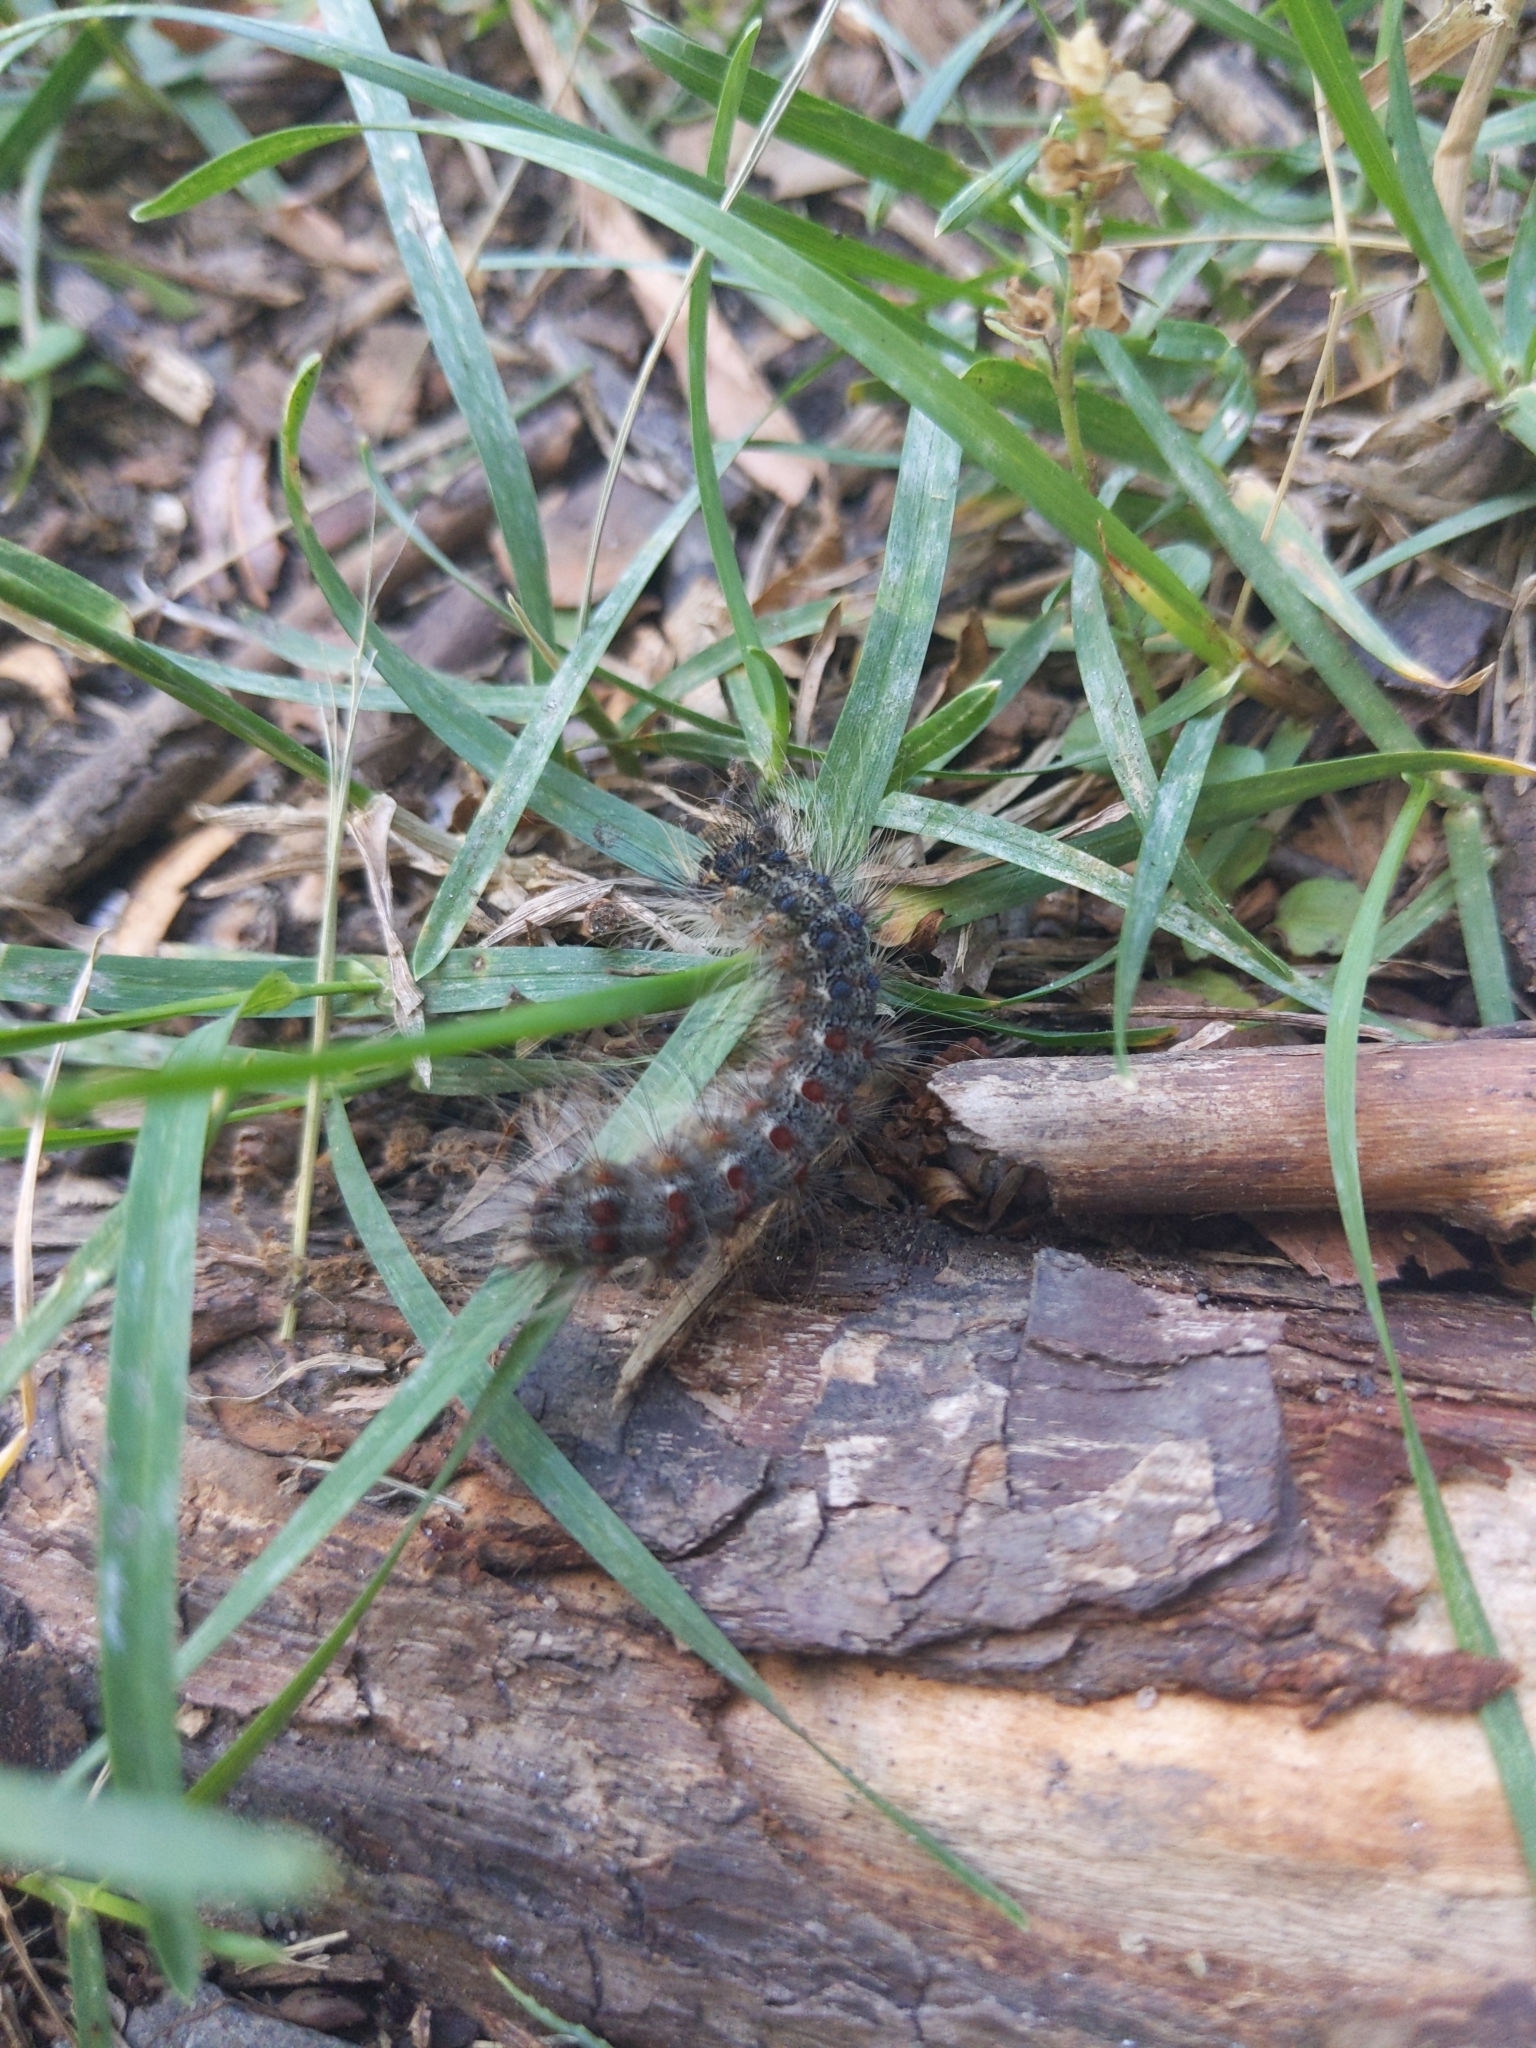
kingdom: Animalia
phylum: Arthropoda
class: Insecta
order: Lepidoptera
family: Erebidae
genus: Lymantria
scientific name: Lymantria dispar
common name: Gypsy moth
